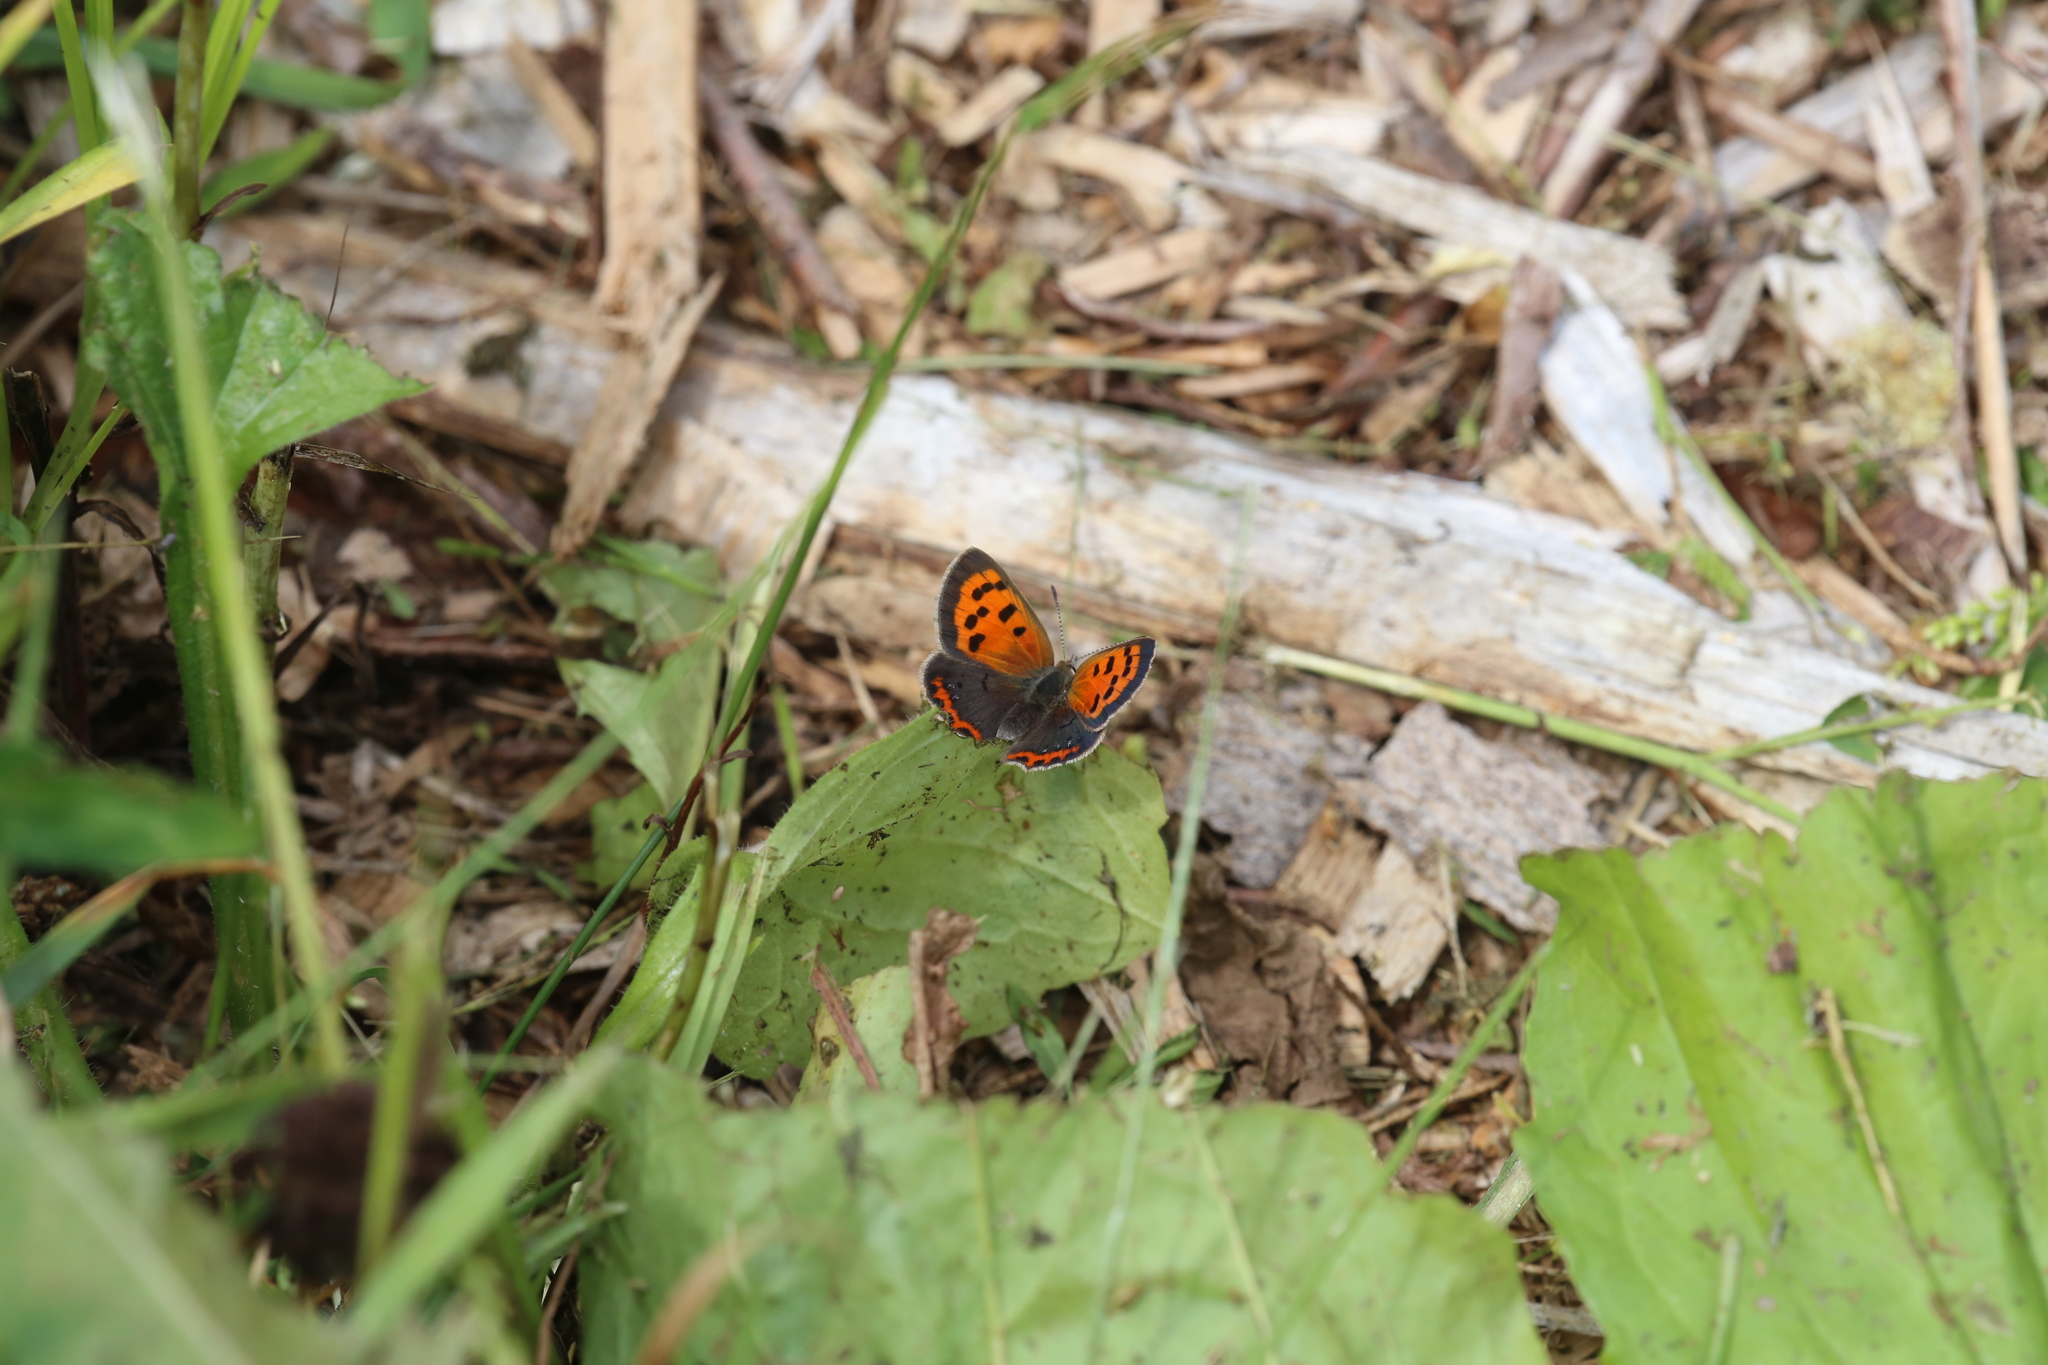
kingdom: Animalia
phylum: Arthropoda
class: Insecta
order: Lepidoptera
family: Lycaenidae
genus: Lycaena
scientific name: Lycaena hypophlaeas
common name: American copper
